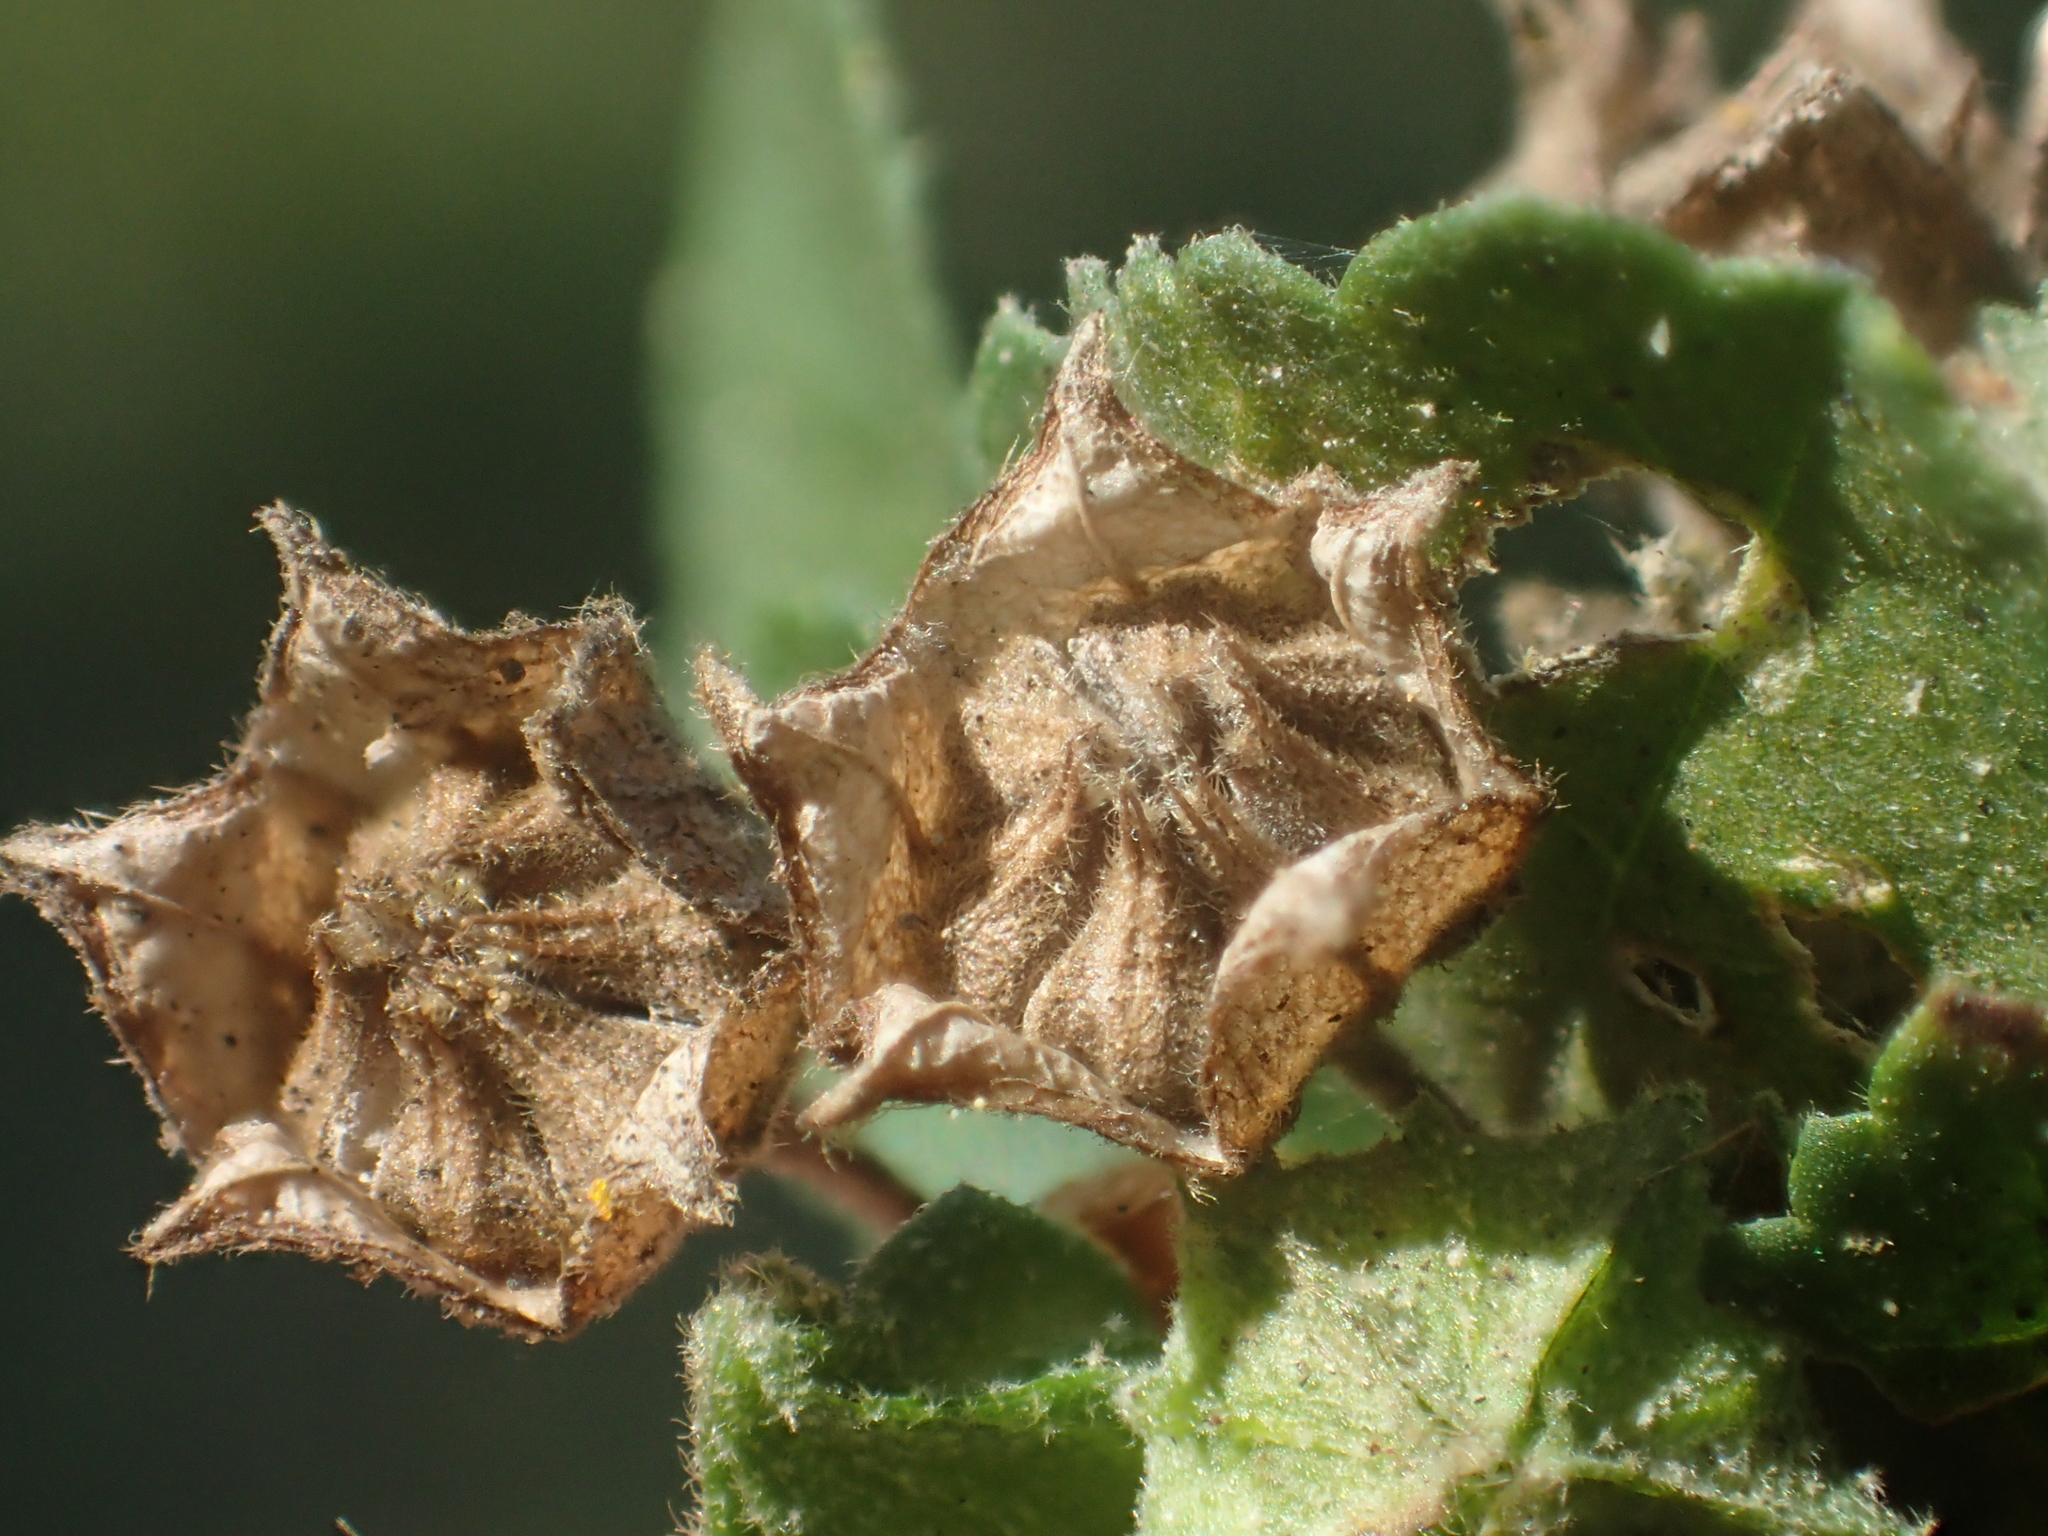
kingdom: Plantae
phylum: Tracheophyta
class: Magnoliopsida
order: Malvales
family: Malvaceae
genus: Sida
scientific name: Sida rhombifolia
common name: Queensland-hemp
